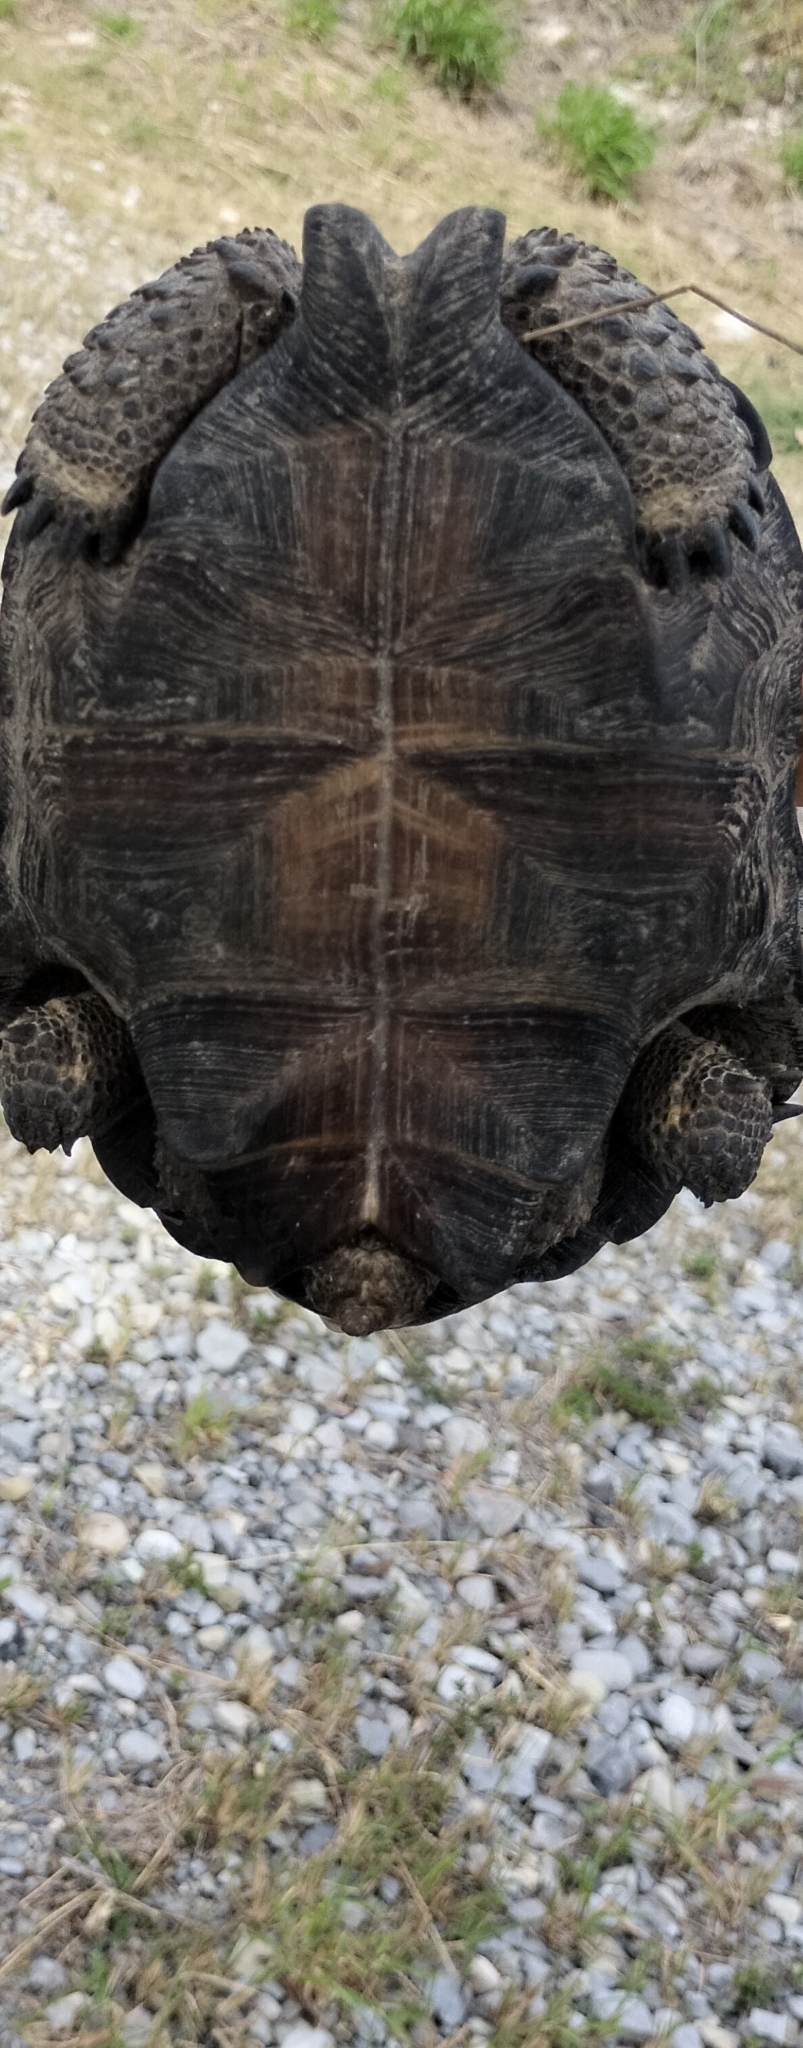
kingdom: Animalia
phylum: Chordata
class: Testudines
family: Testudinidae
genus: Gopherus
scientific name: Gopherus berlandieri
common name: Texas (gopher )tortoise
